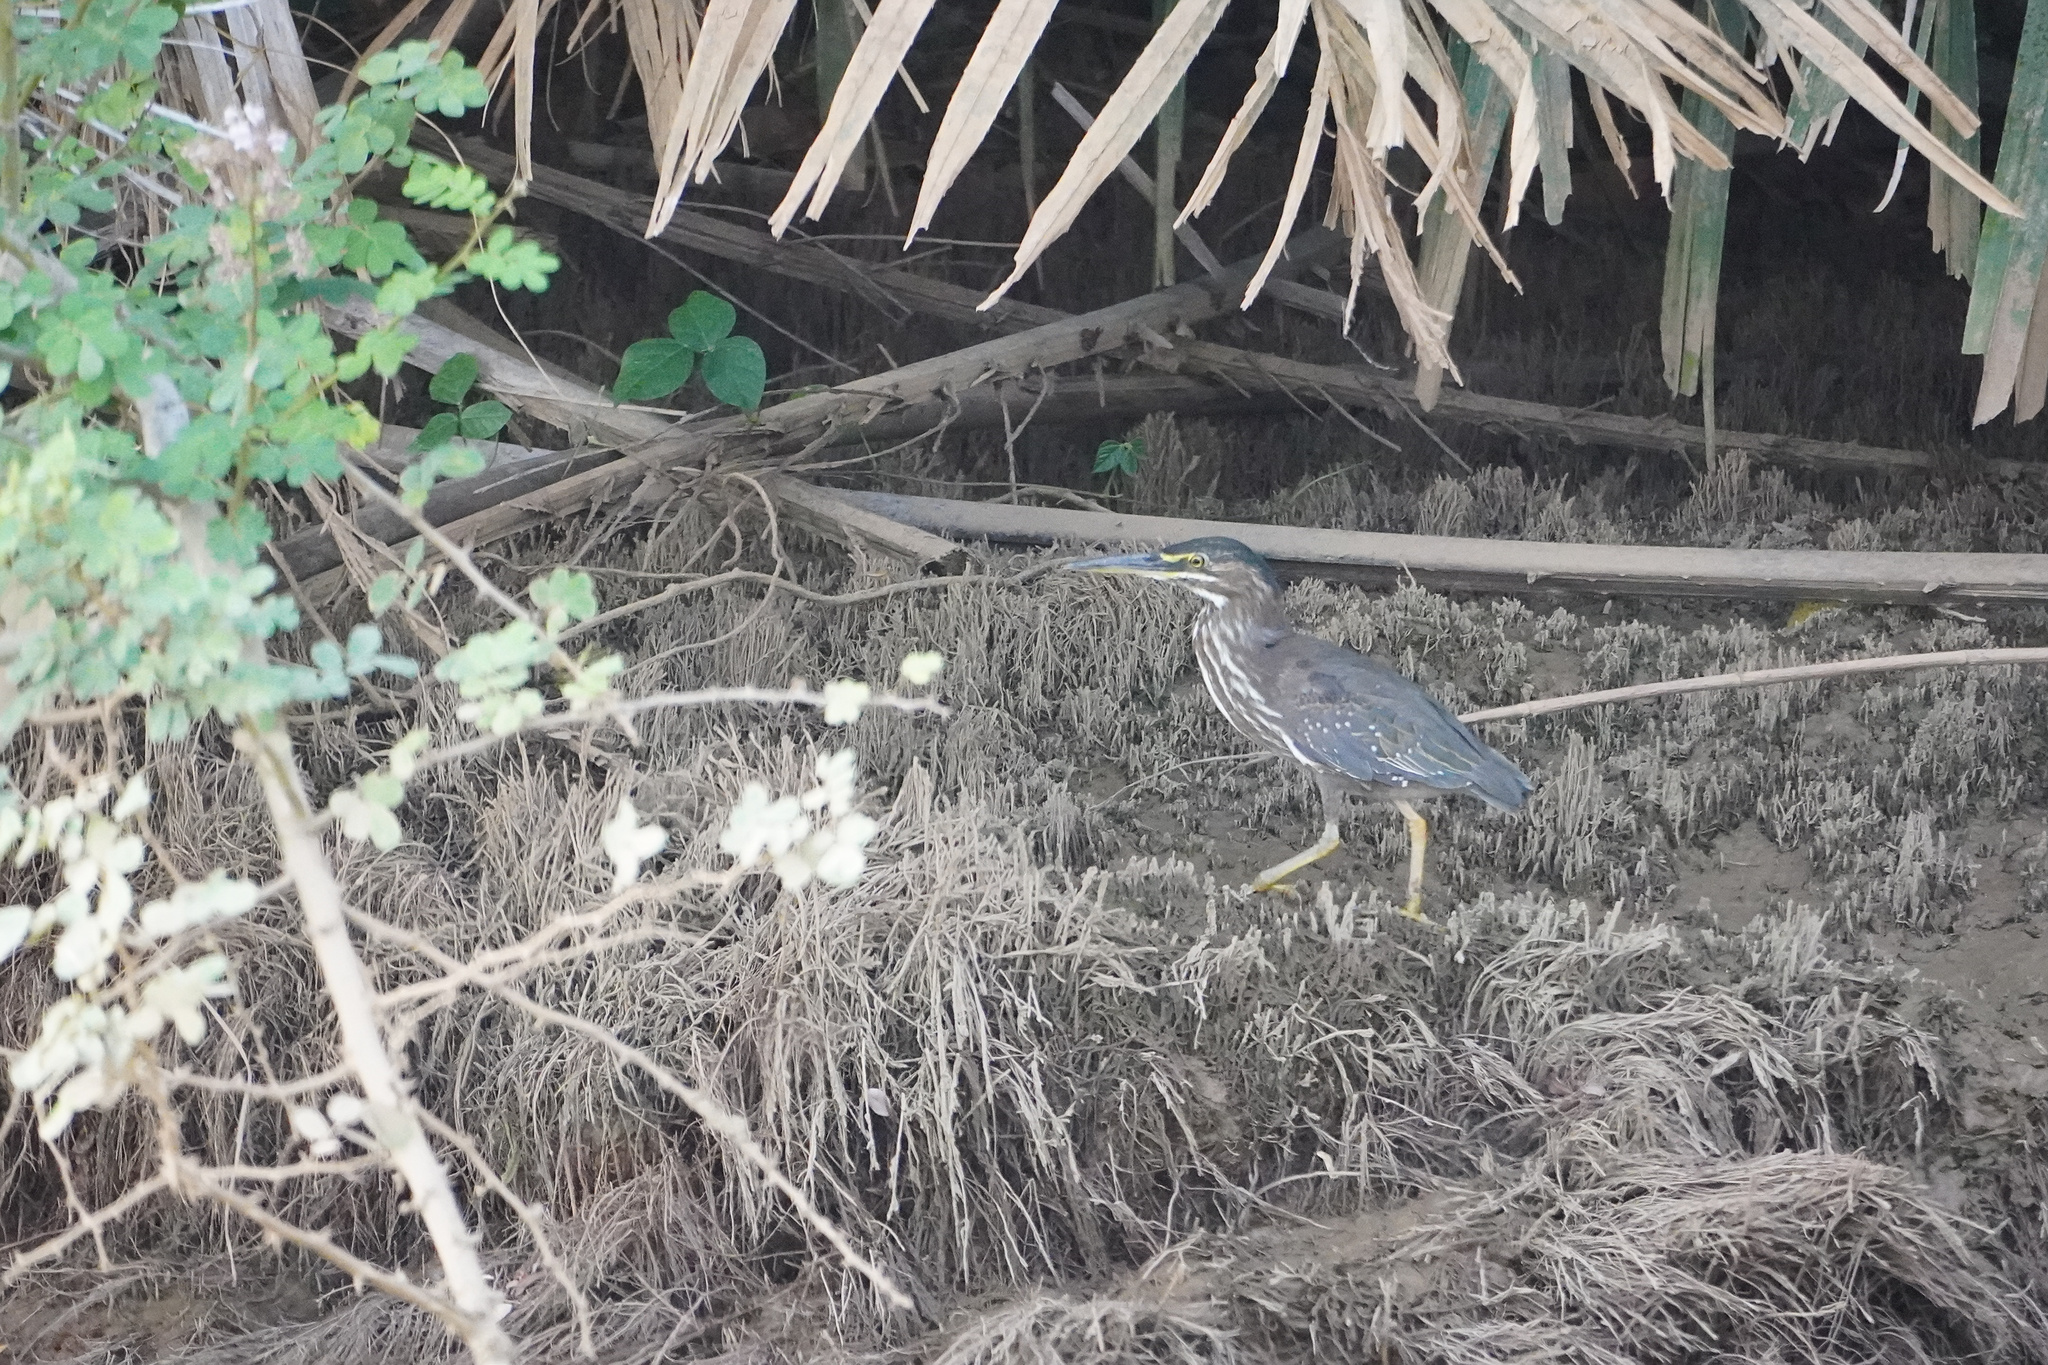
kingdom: Animalia
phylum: Chordata
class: Aves
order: Pelecaniformes
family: Ardeidae
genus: Butorides
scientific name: Butorides striata
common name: Striated heron
